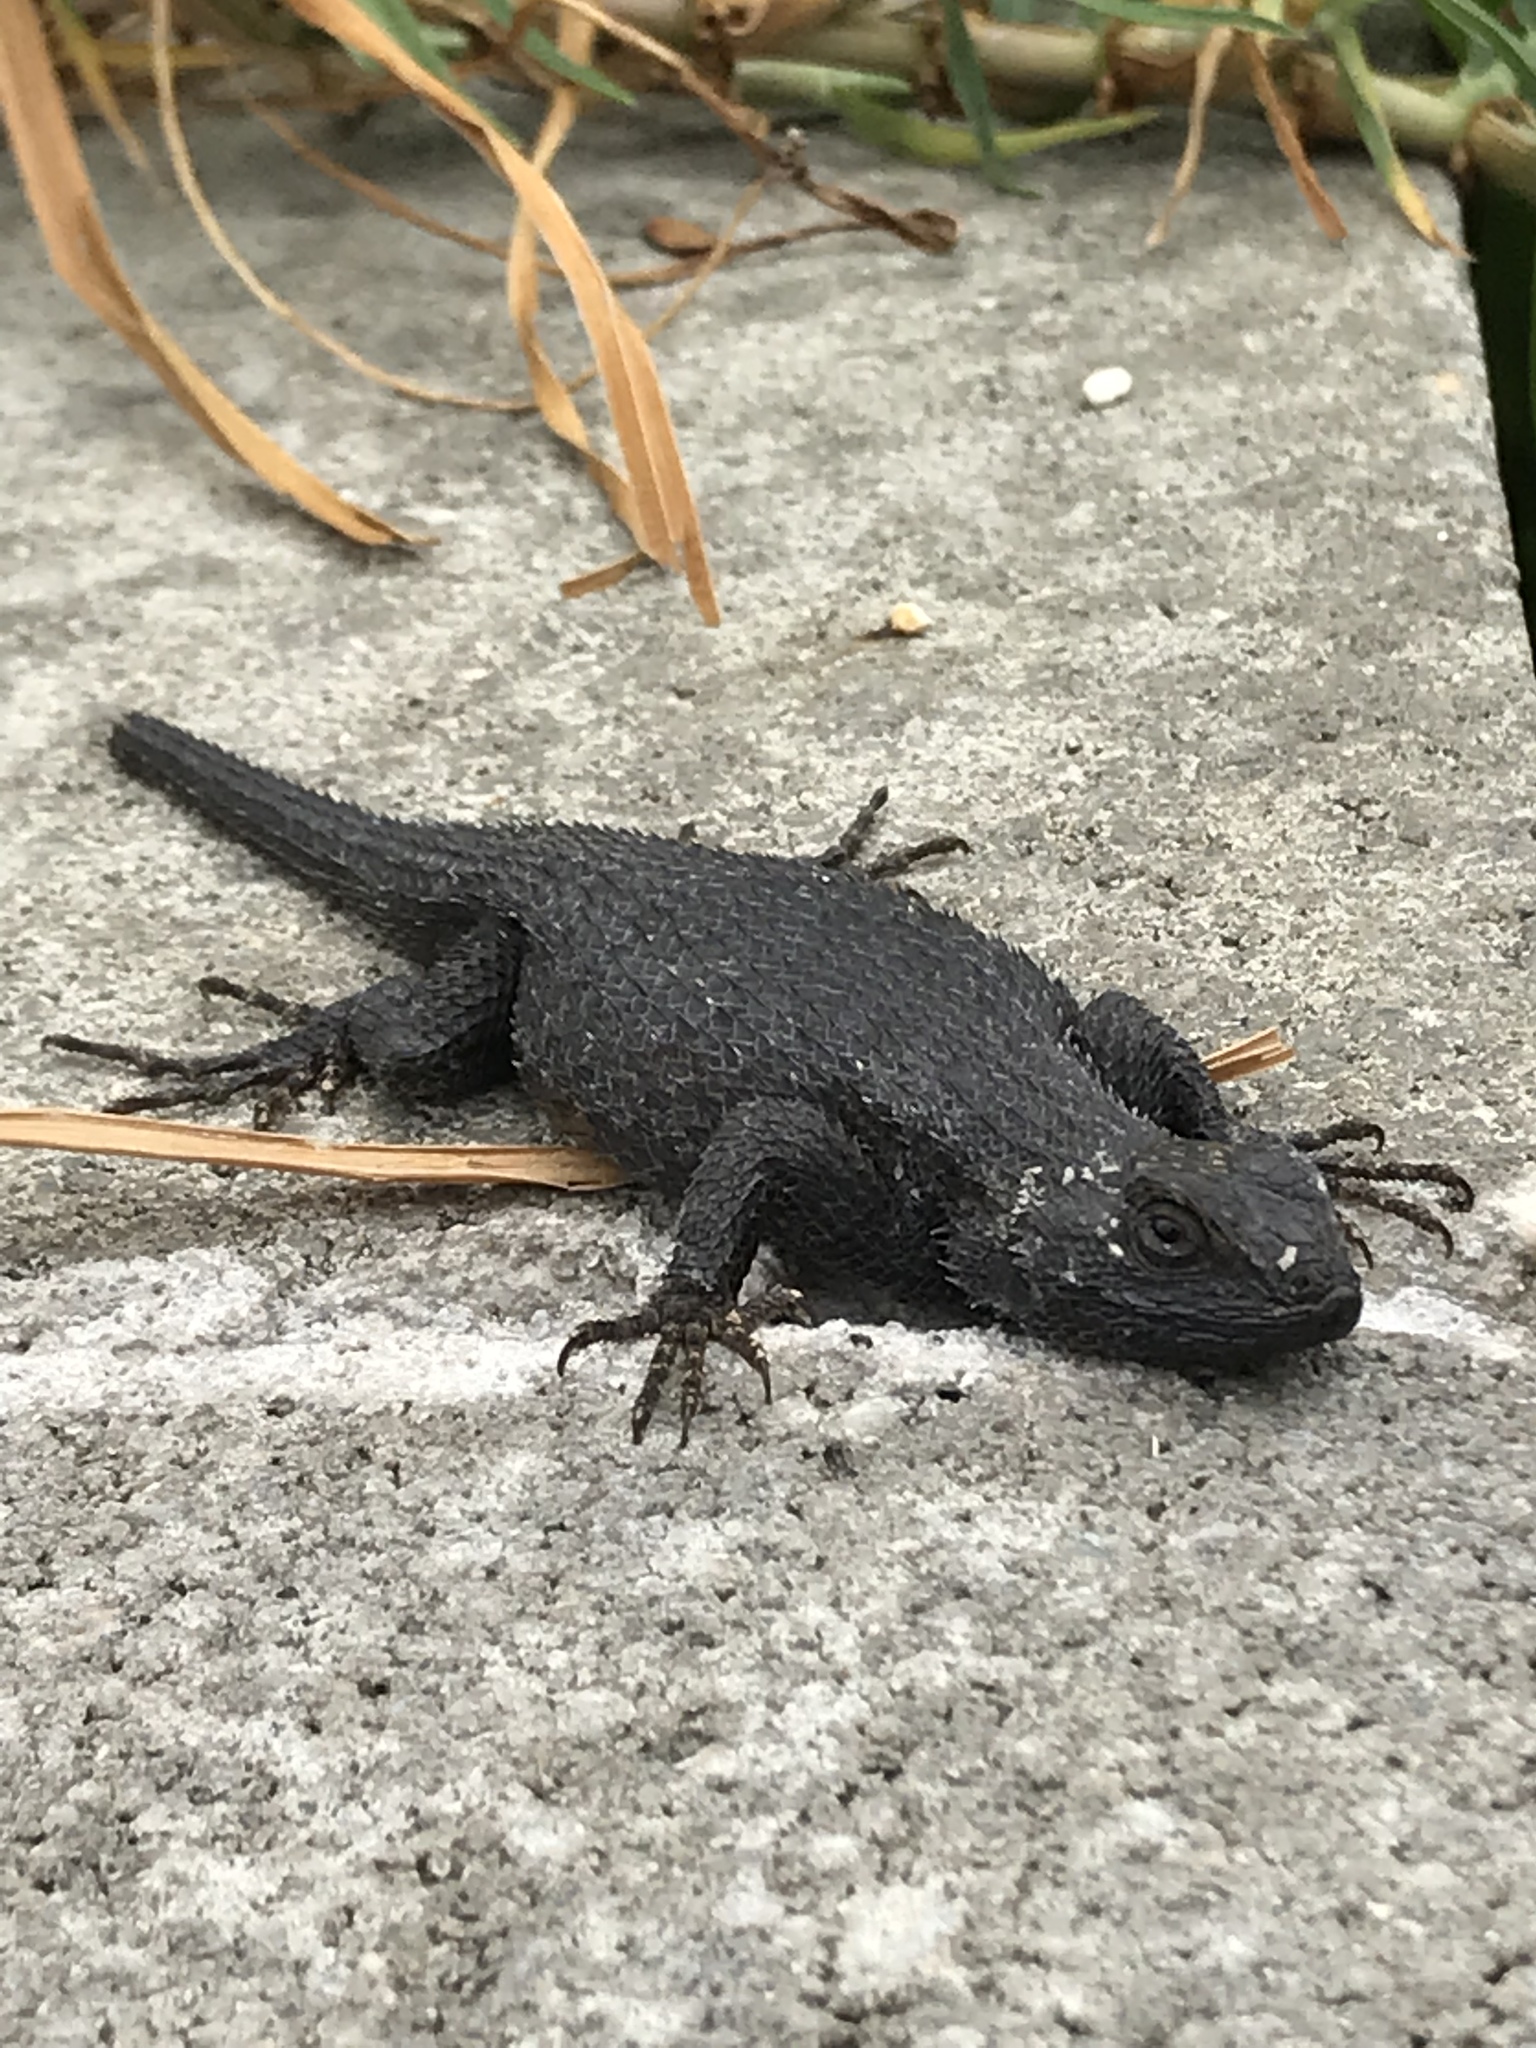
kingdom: Animalia
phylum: Chordata
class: Squamata
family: Phrynosomatidae
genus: Sceloporus
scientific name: Sceloporus occidentalis
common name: Western fence lizard
